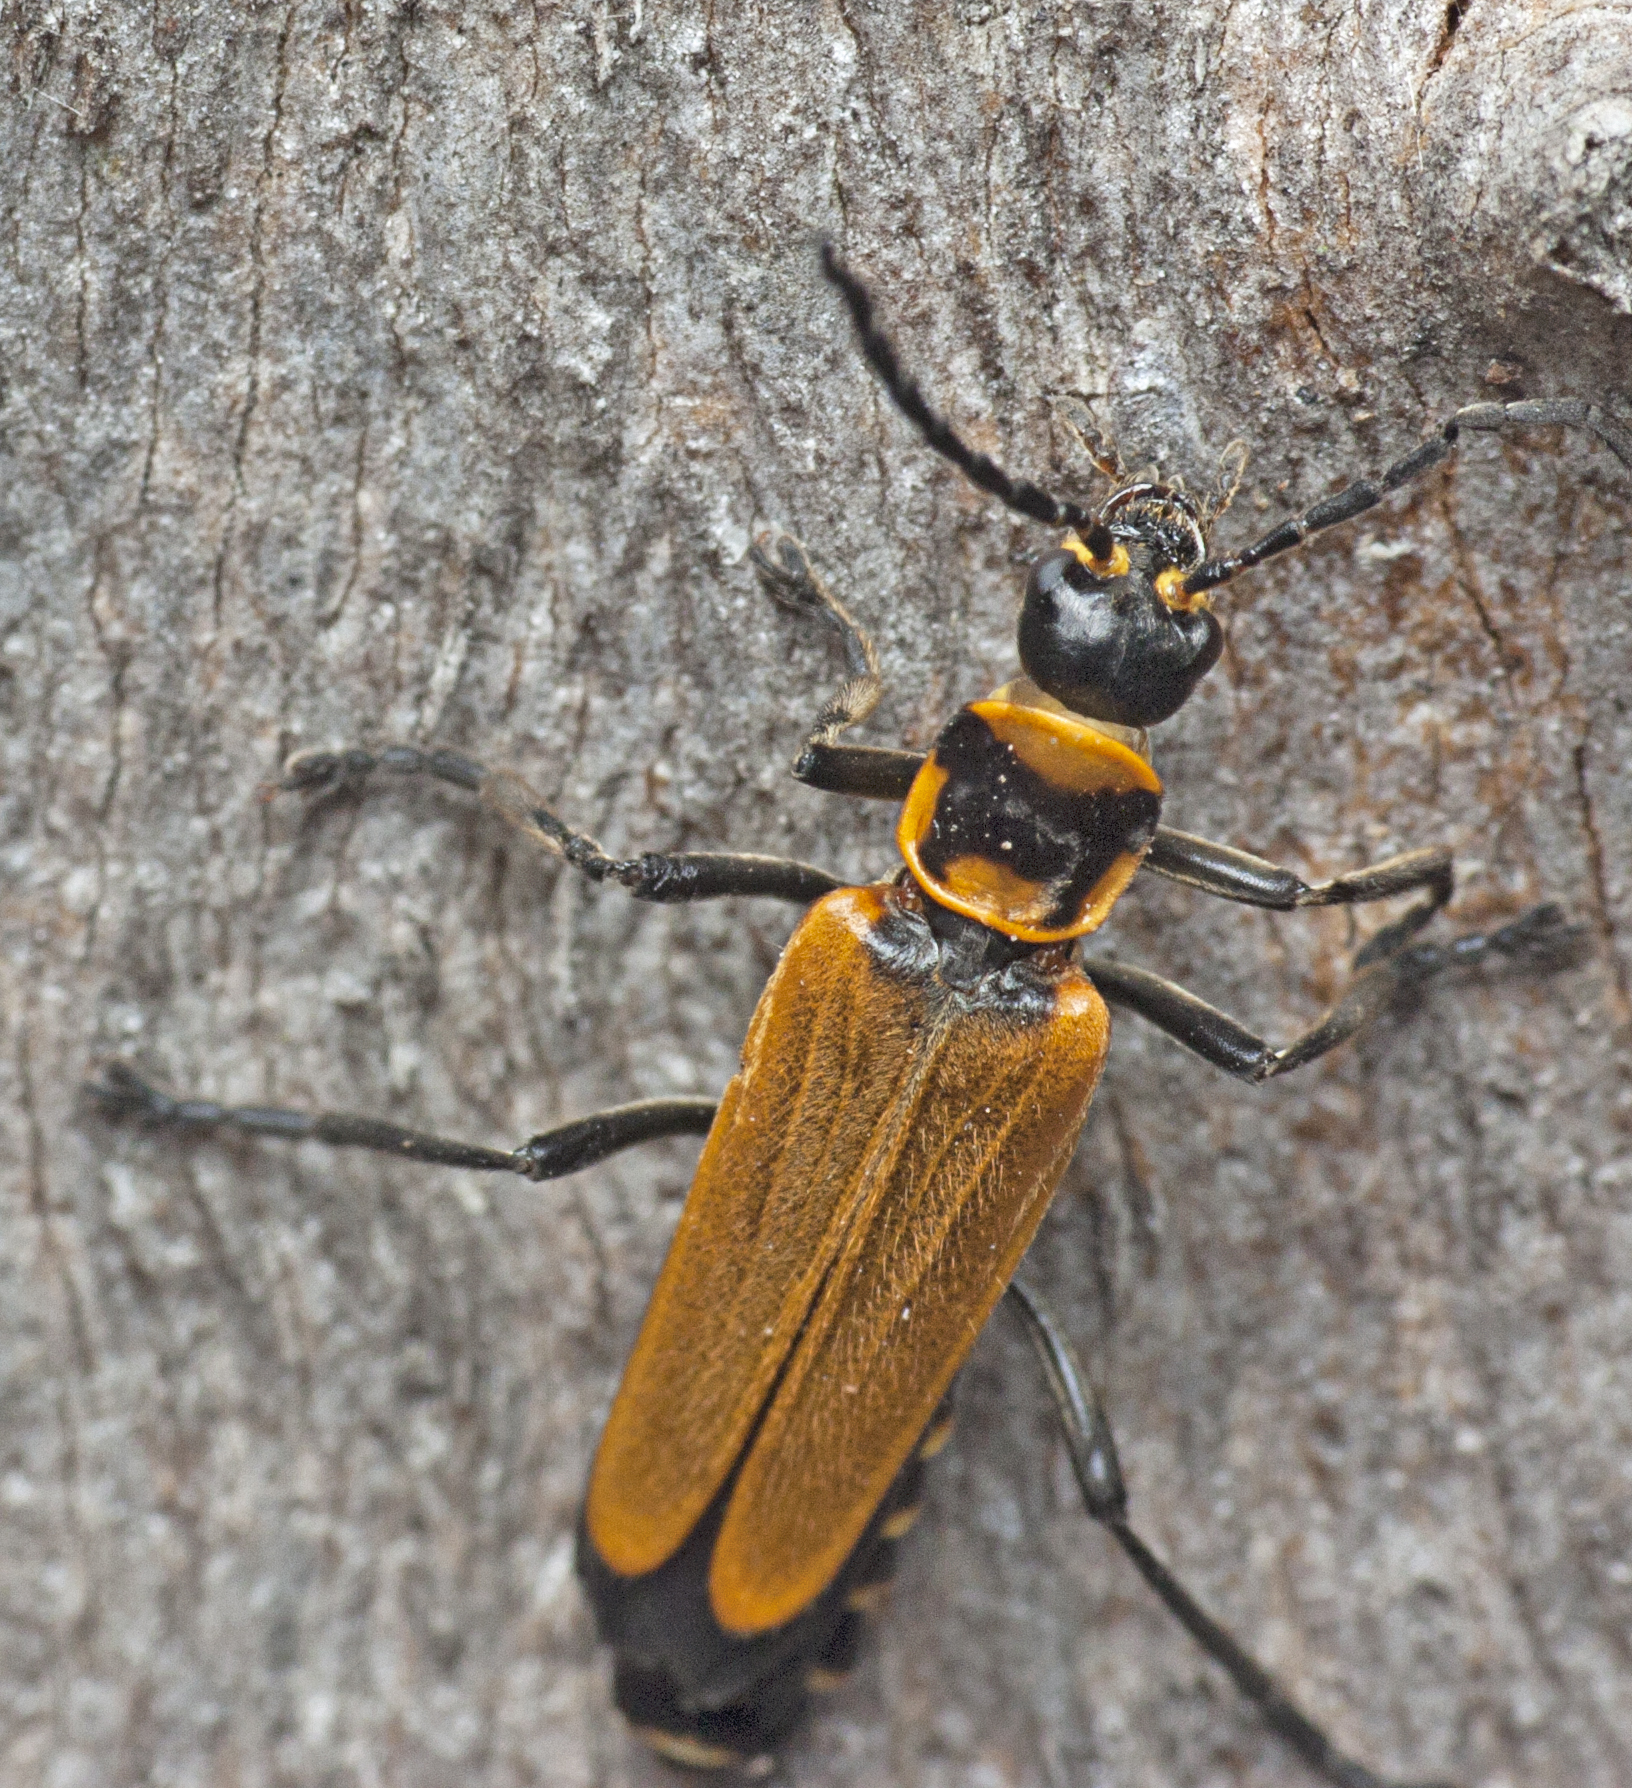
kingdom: Animalia
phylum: Arthropoda
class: Insecta
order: Coleoptera
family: Cantharidae
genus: Chauliognathus
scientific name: Chauliognathus
